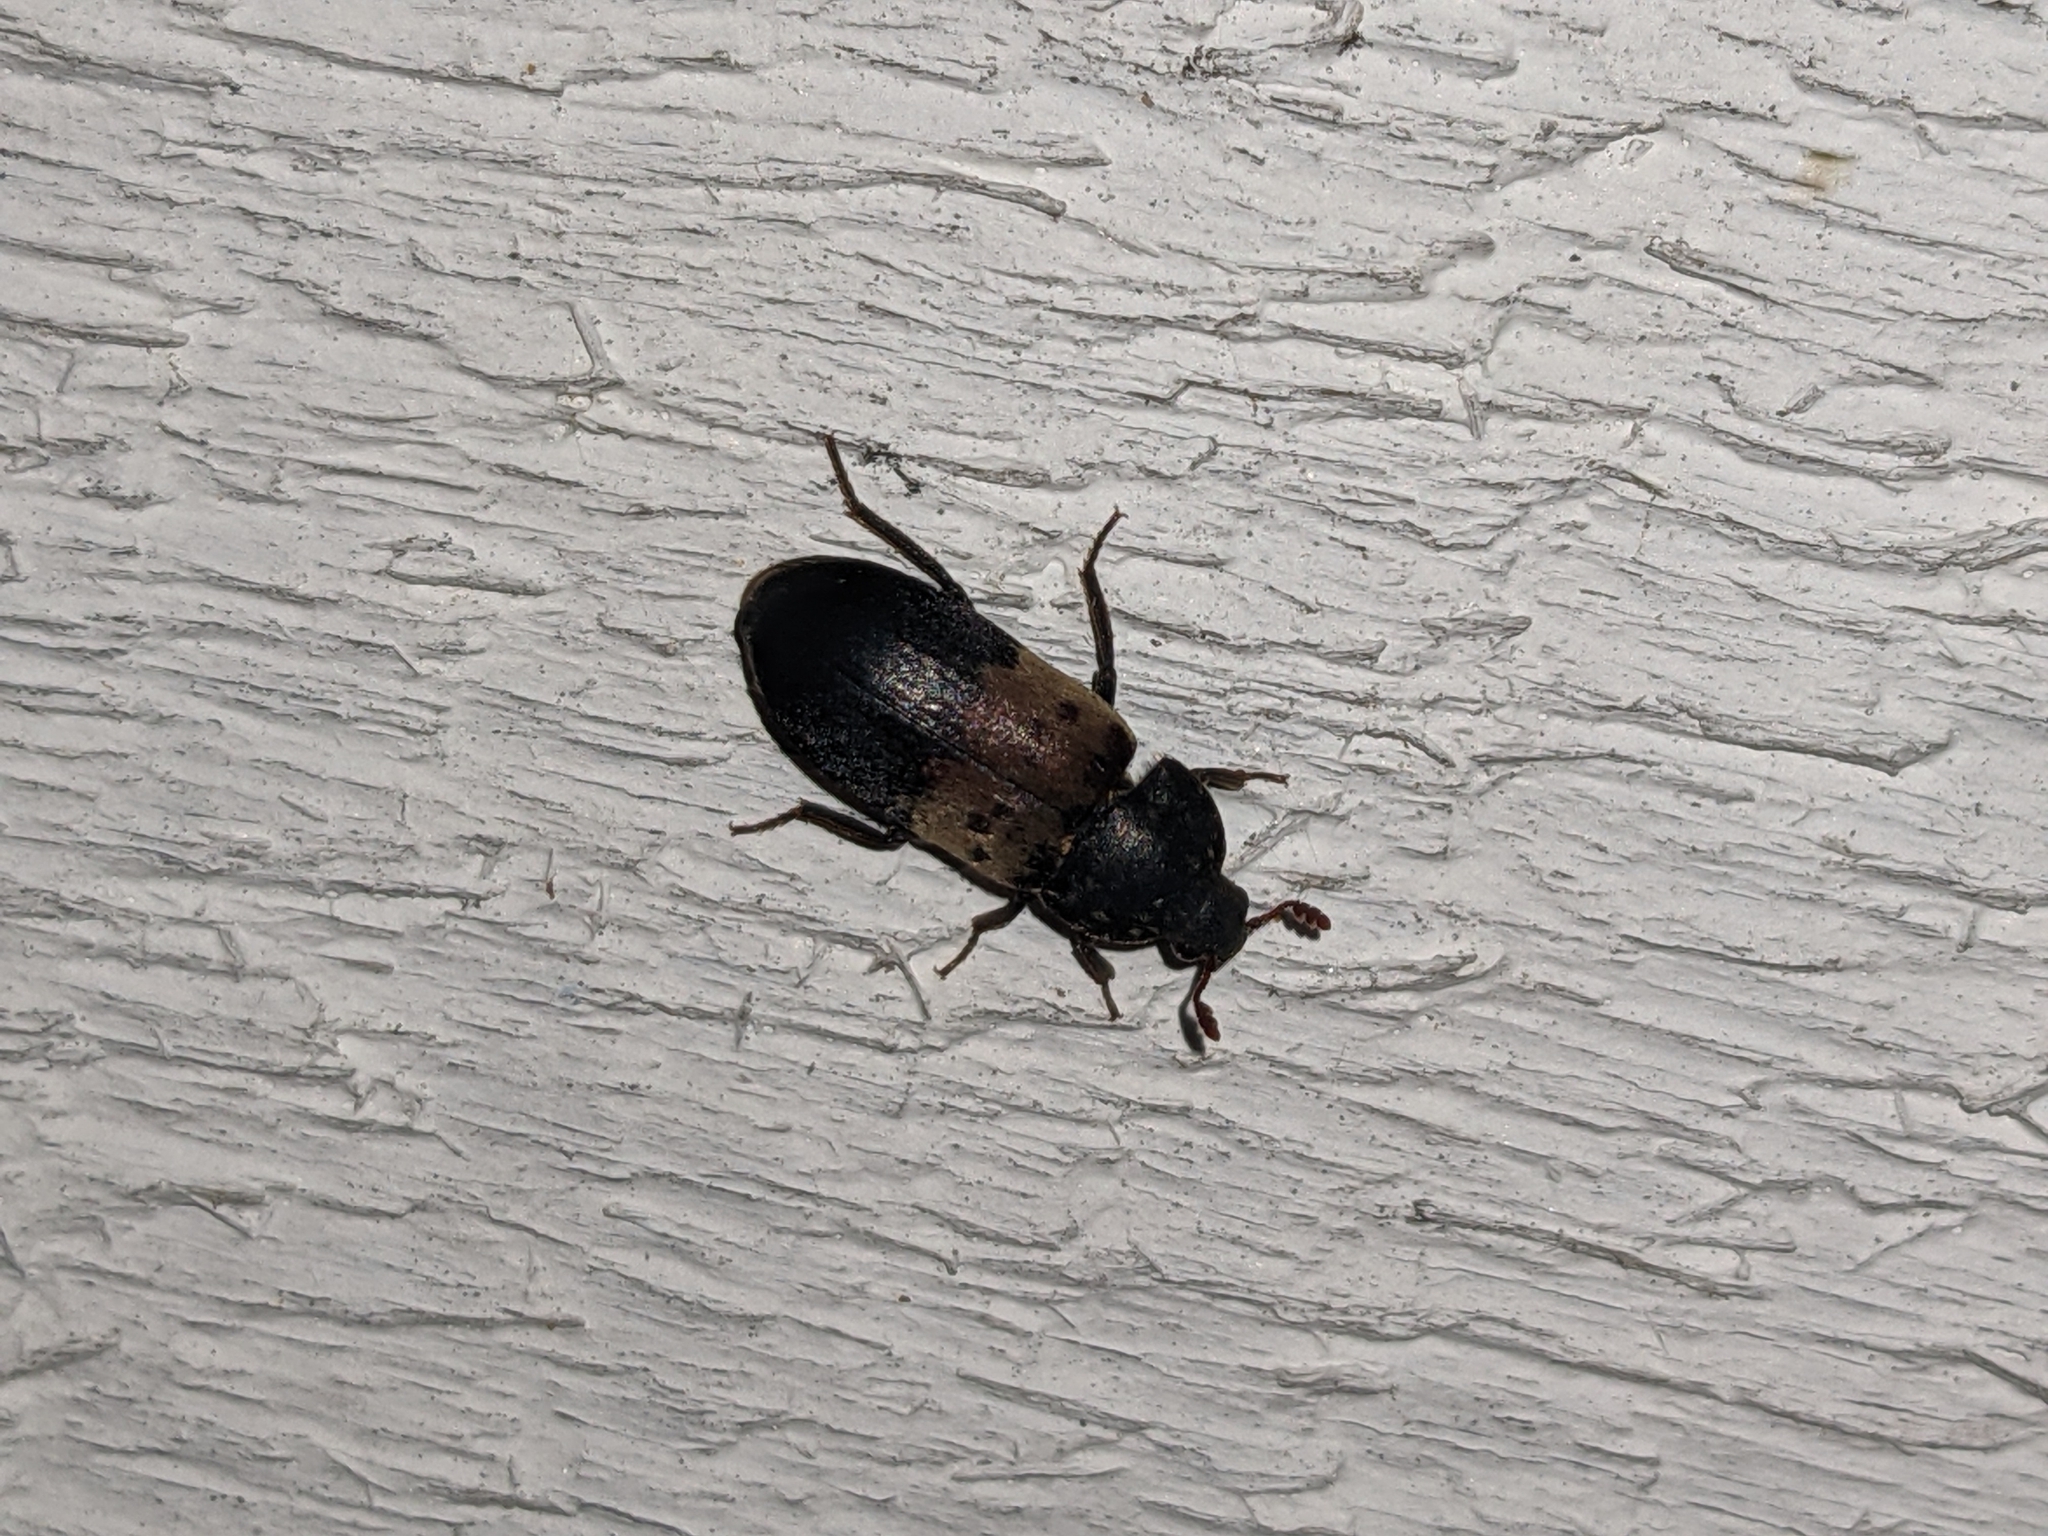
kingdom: Animalia
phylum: Arthropoda
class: Insecta
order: Coleoptera
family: Dermestidae
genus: Dermestes
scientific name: Dermestes lardarius
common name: Larder beetle
